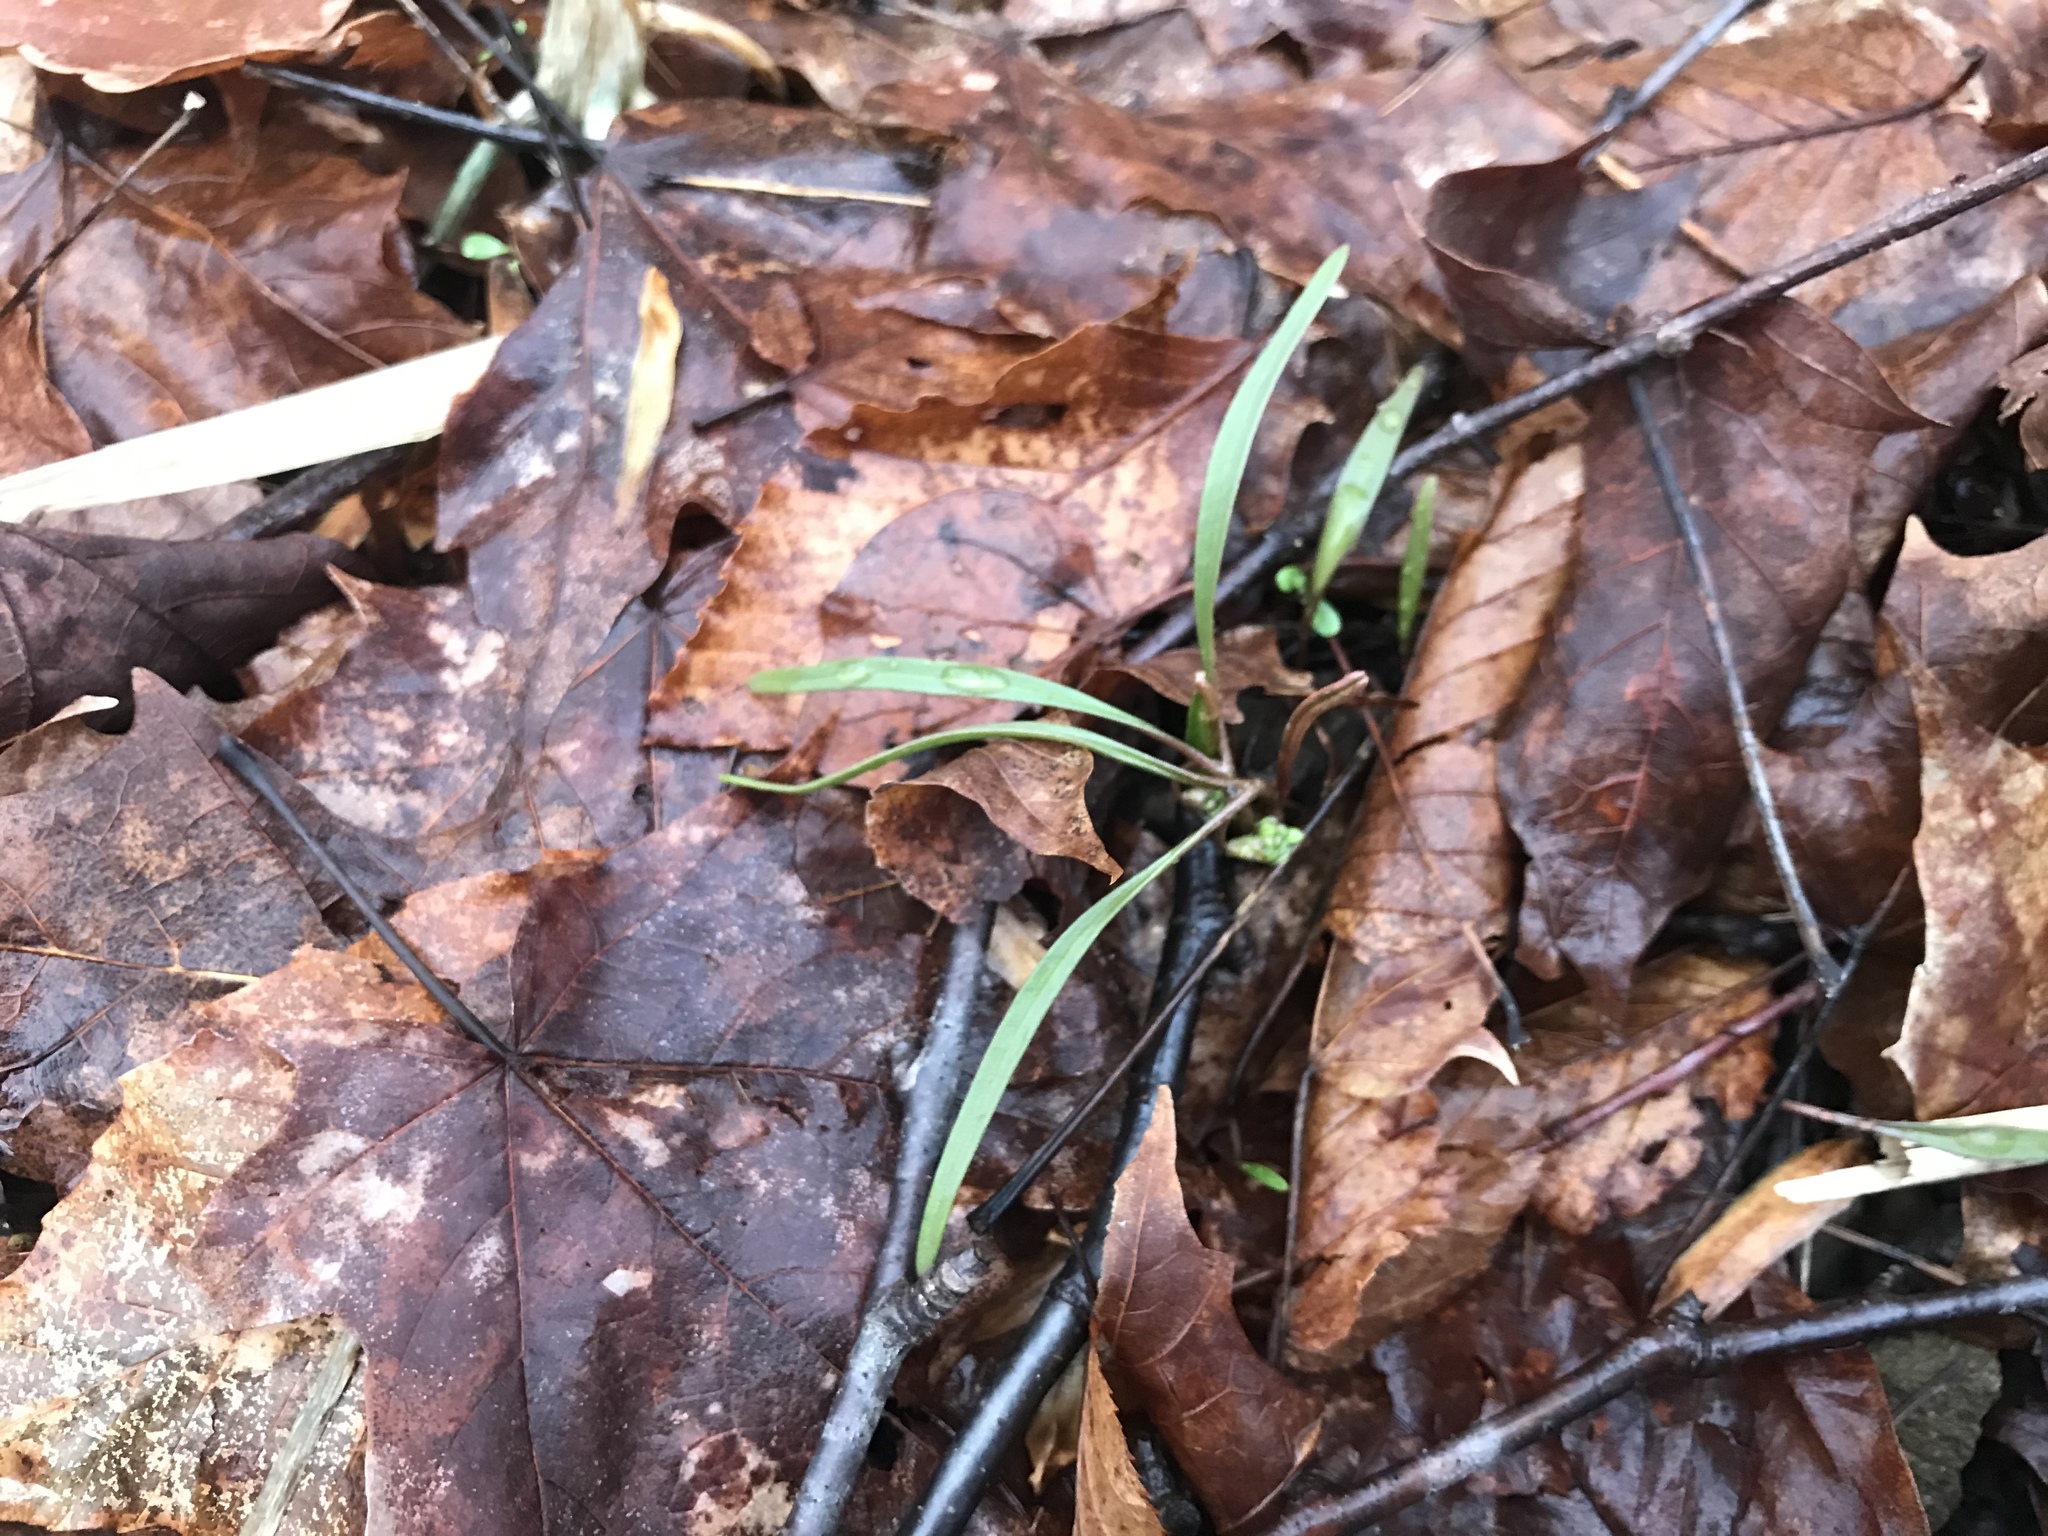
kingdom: Plantae
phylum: Tracheophyta
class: Magnoliopsida
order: Caryophyllales
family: Montiaceae
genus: Claytonia
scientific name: Claytonia virginica
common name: Virginia springbeauty
